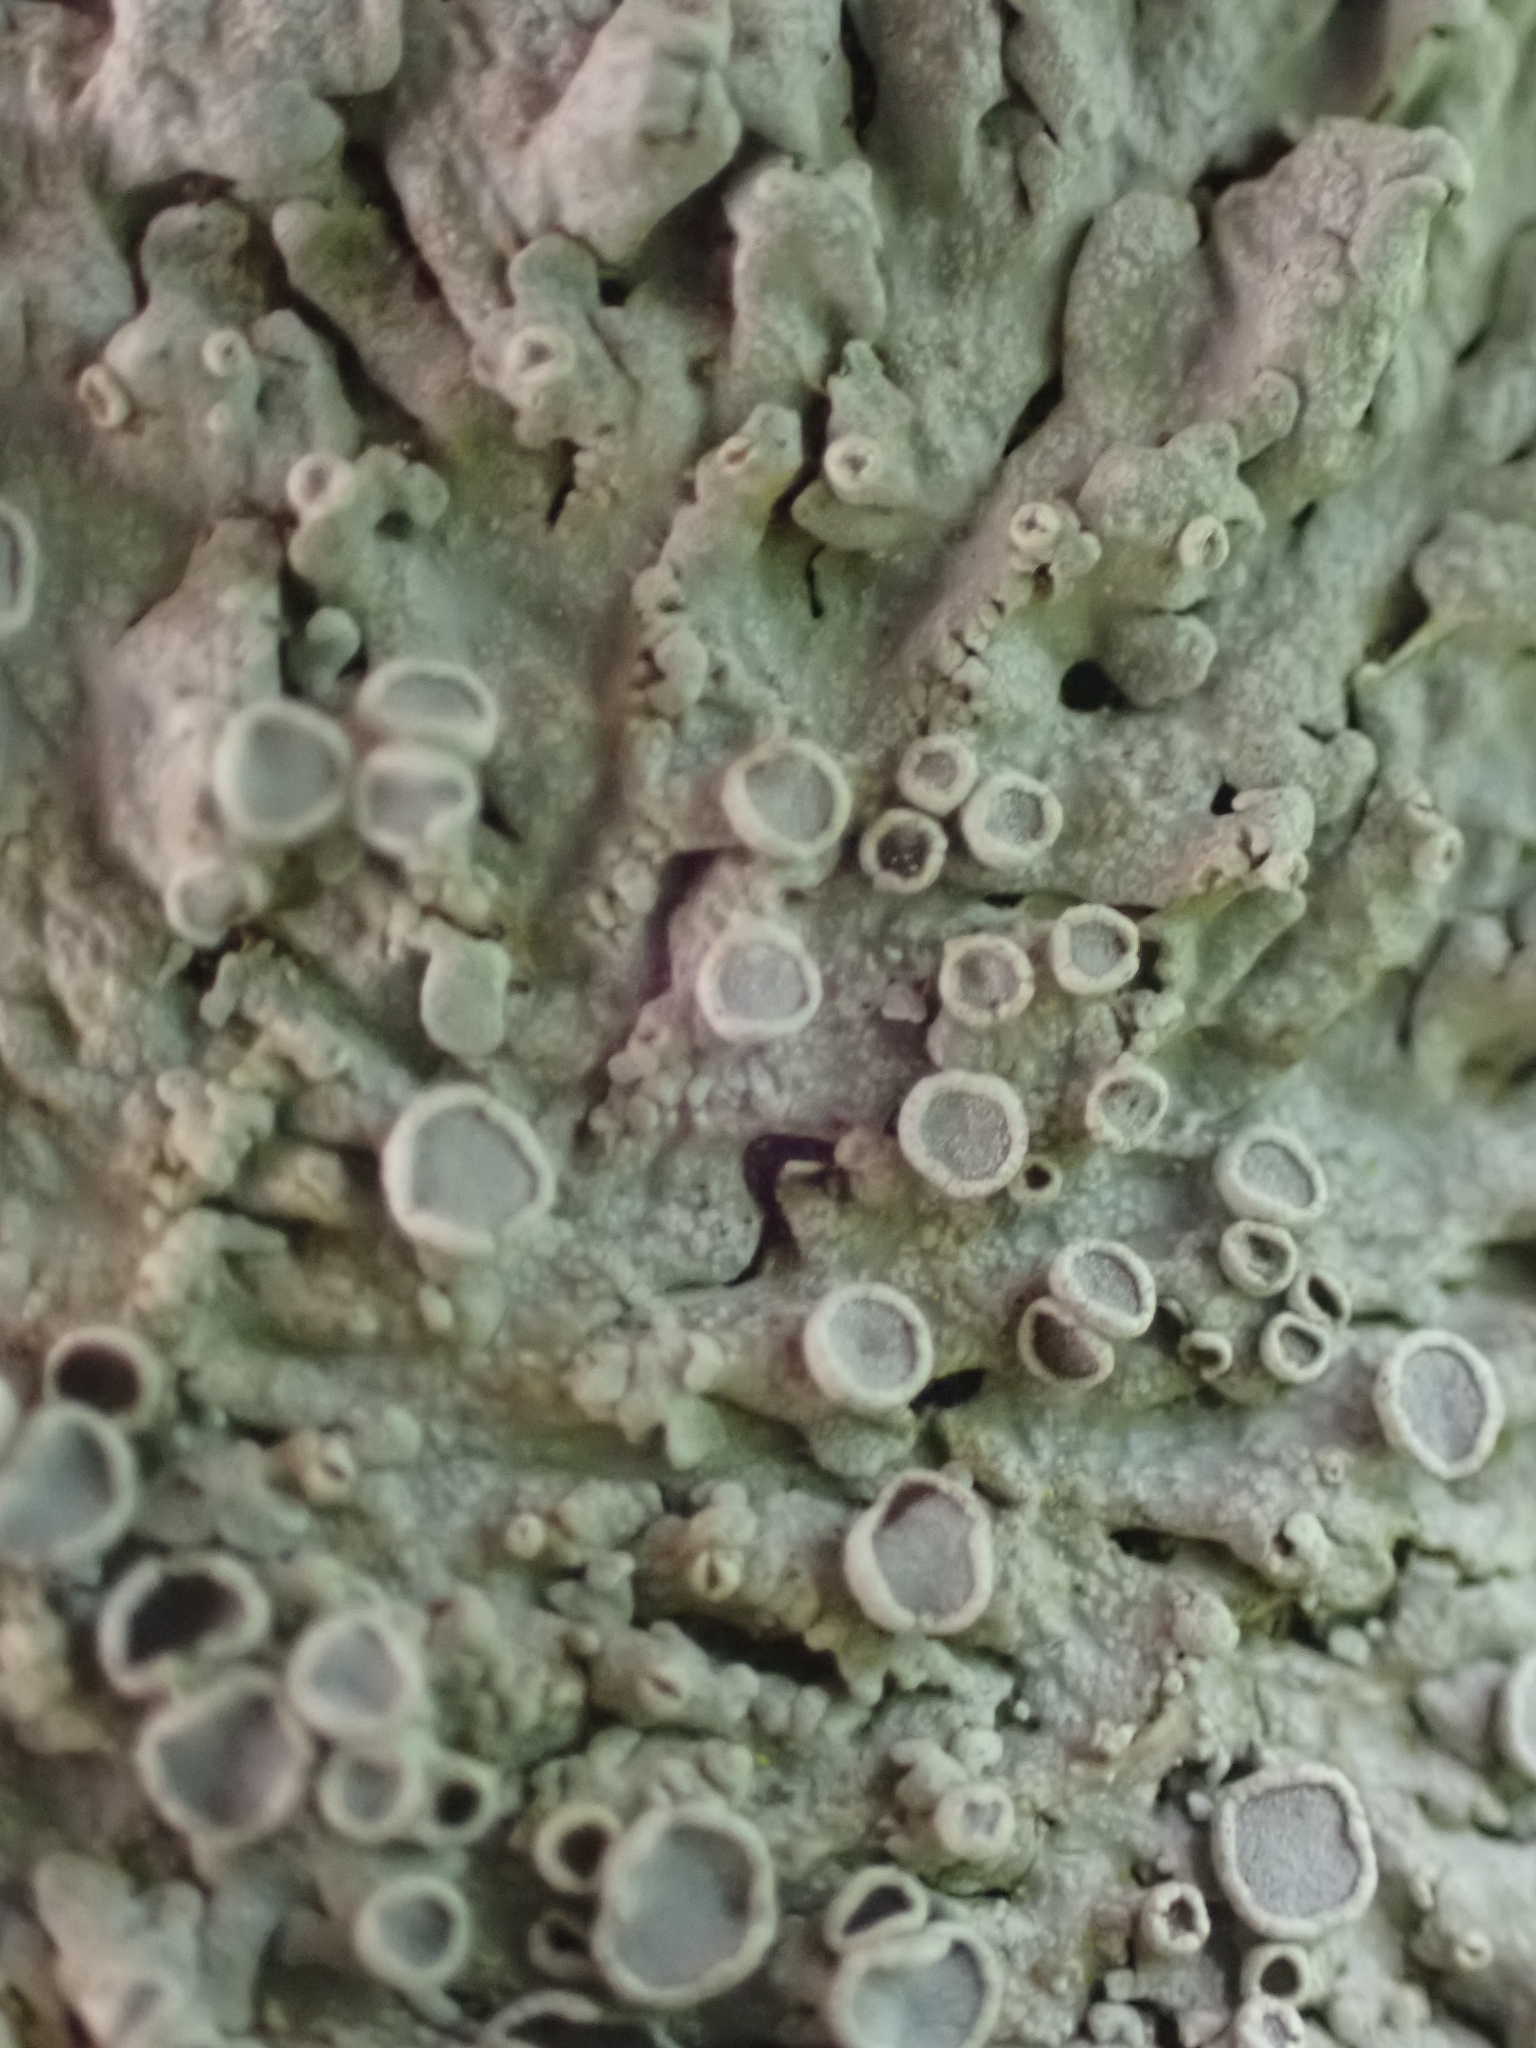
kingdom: Fungi
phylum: Ascomycota
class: Lecanoromycetes
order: Caliciales
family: Physciaceae
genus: Physcia
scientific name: Physcia aipolia
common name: Hoary rosette lichen
